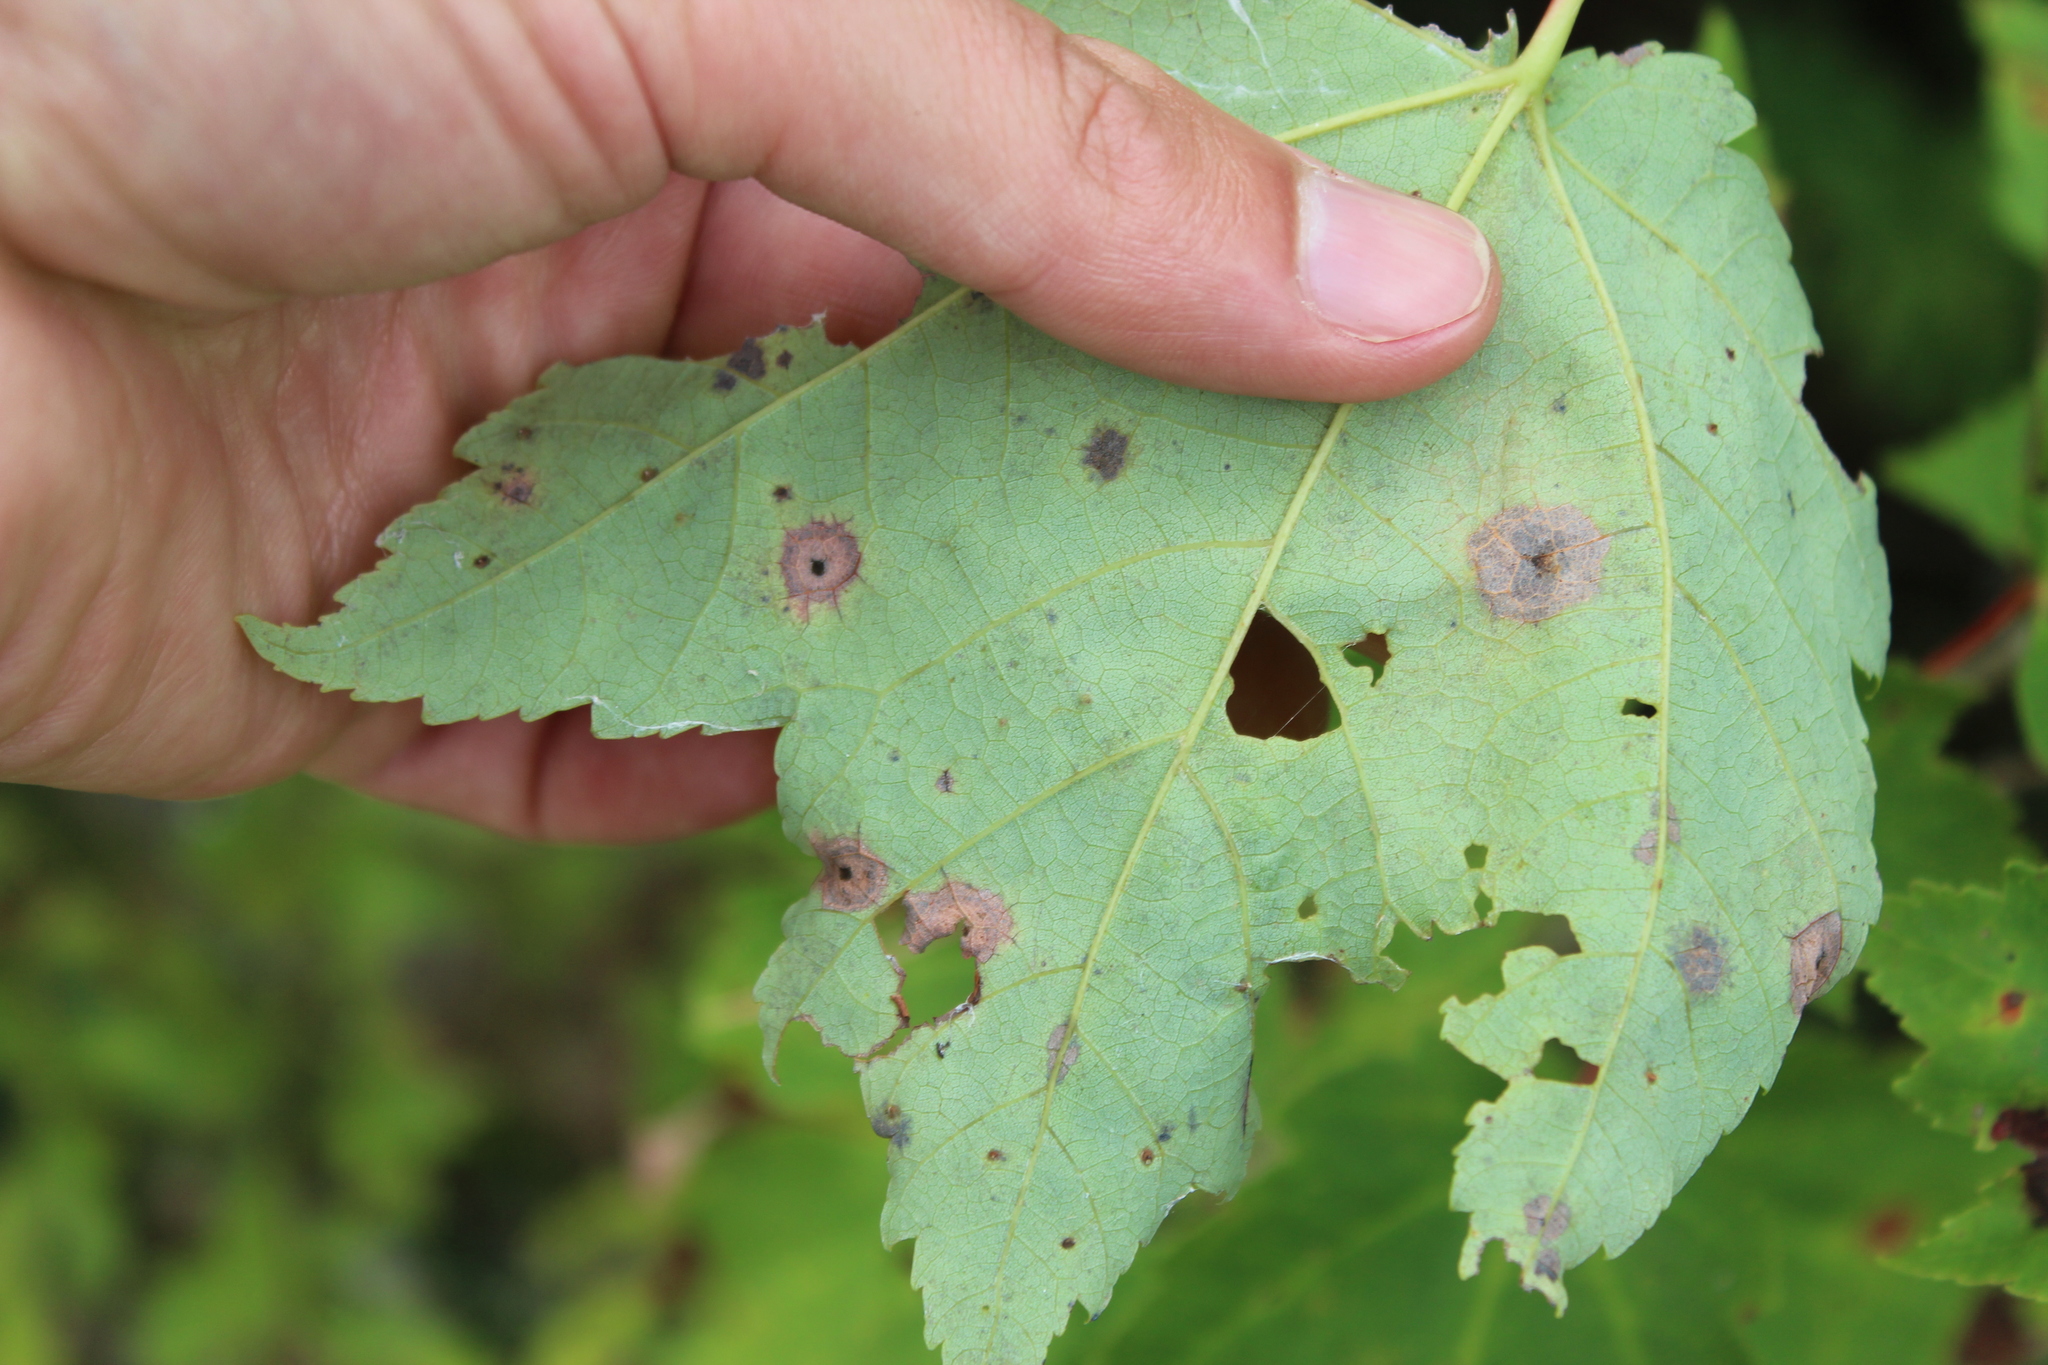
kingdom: Animalia
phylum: Arthropoda
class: Insecta
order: Diptera
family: Cecidomyiidae
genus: Acericecis
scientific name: Acericecis ocellaris
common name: Ocellate gall midge
